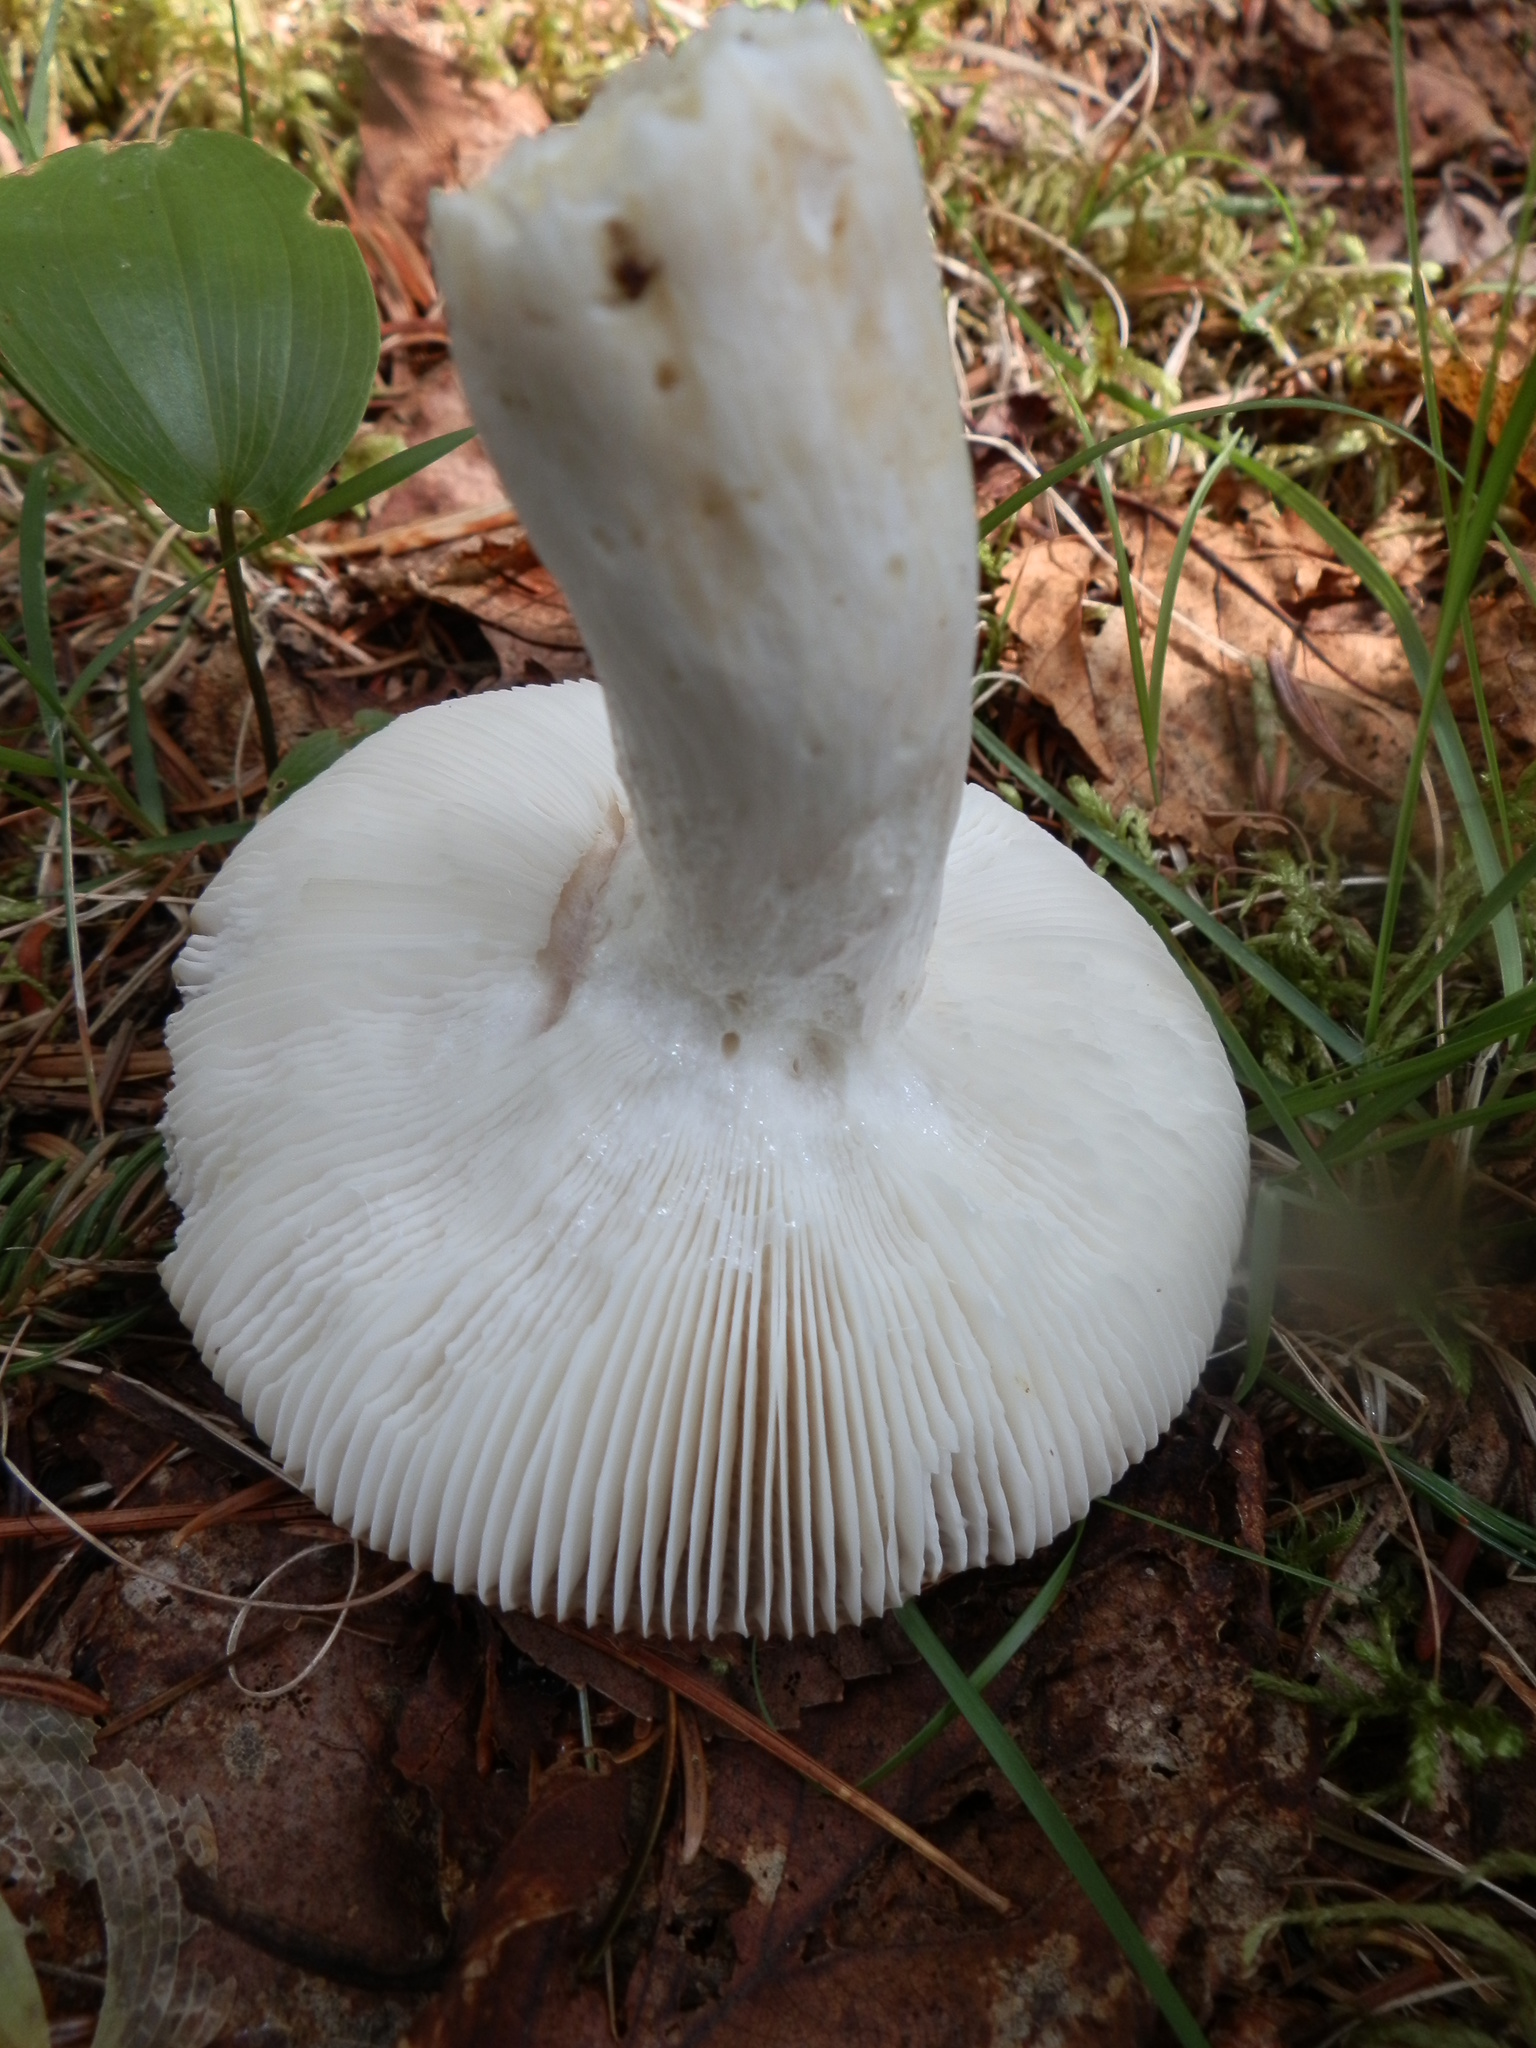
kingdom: Fungi
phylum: Basidiomycota
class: Agaricomycetes
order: Russulales
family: Russulaceae
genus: Russula
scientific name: Russula vesca
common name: Bare-toothed russula
